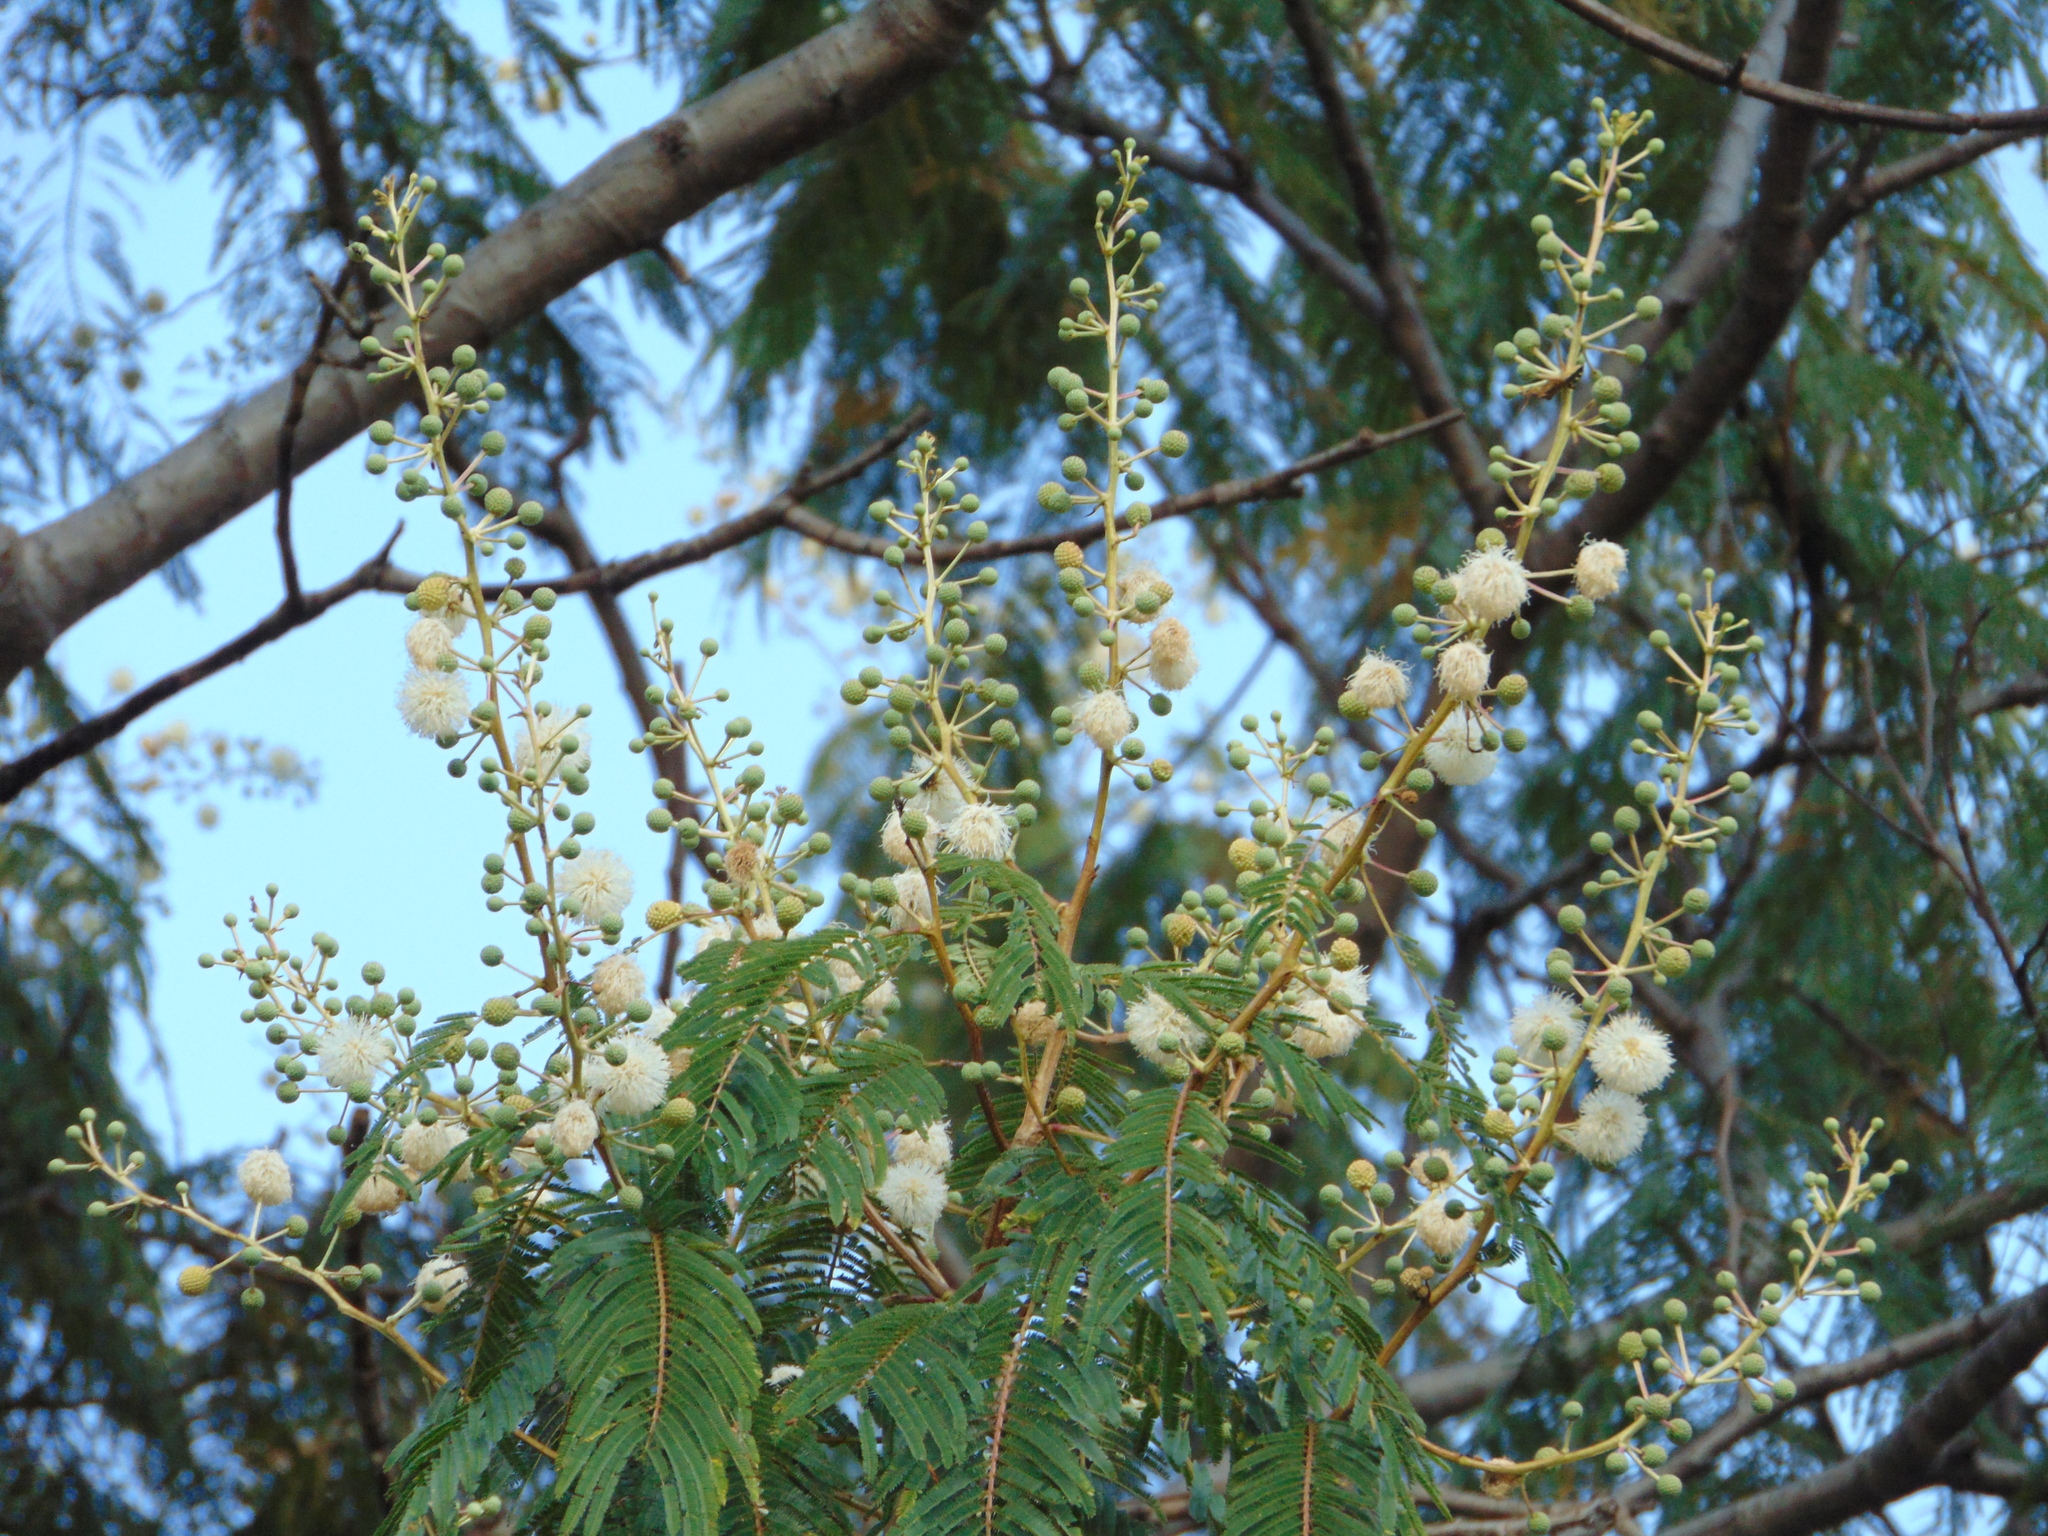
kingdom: Plantae
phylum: Tracheophyta
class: Magnoliopsida
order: Fabales
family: Fabaceae
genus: Leucaena
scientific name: Leucaena leucocephala
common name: White leadtree
